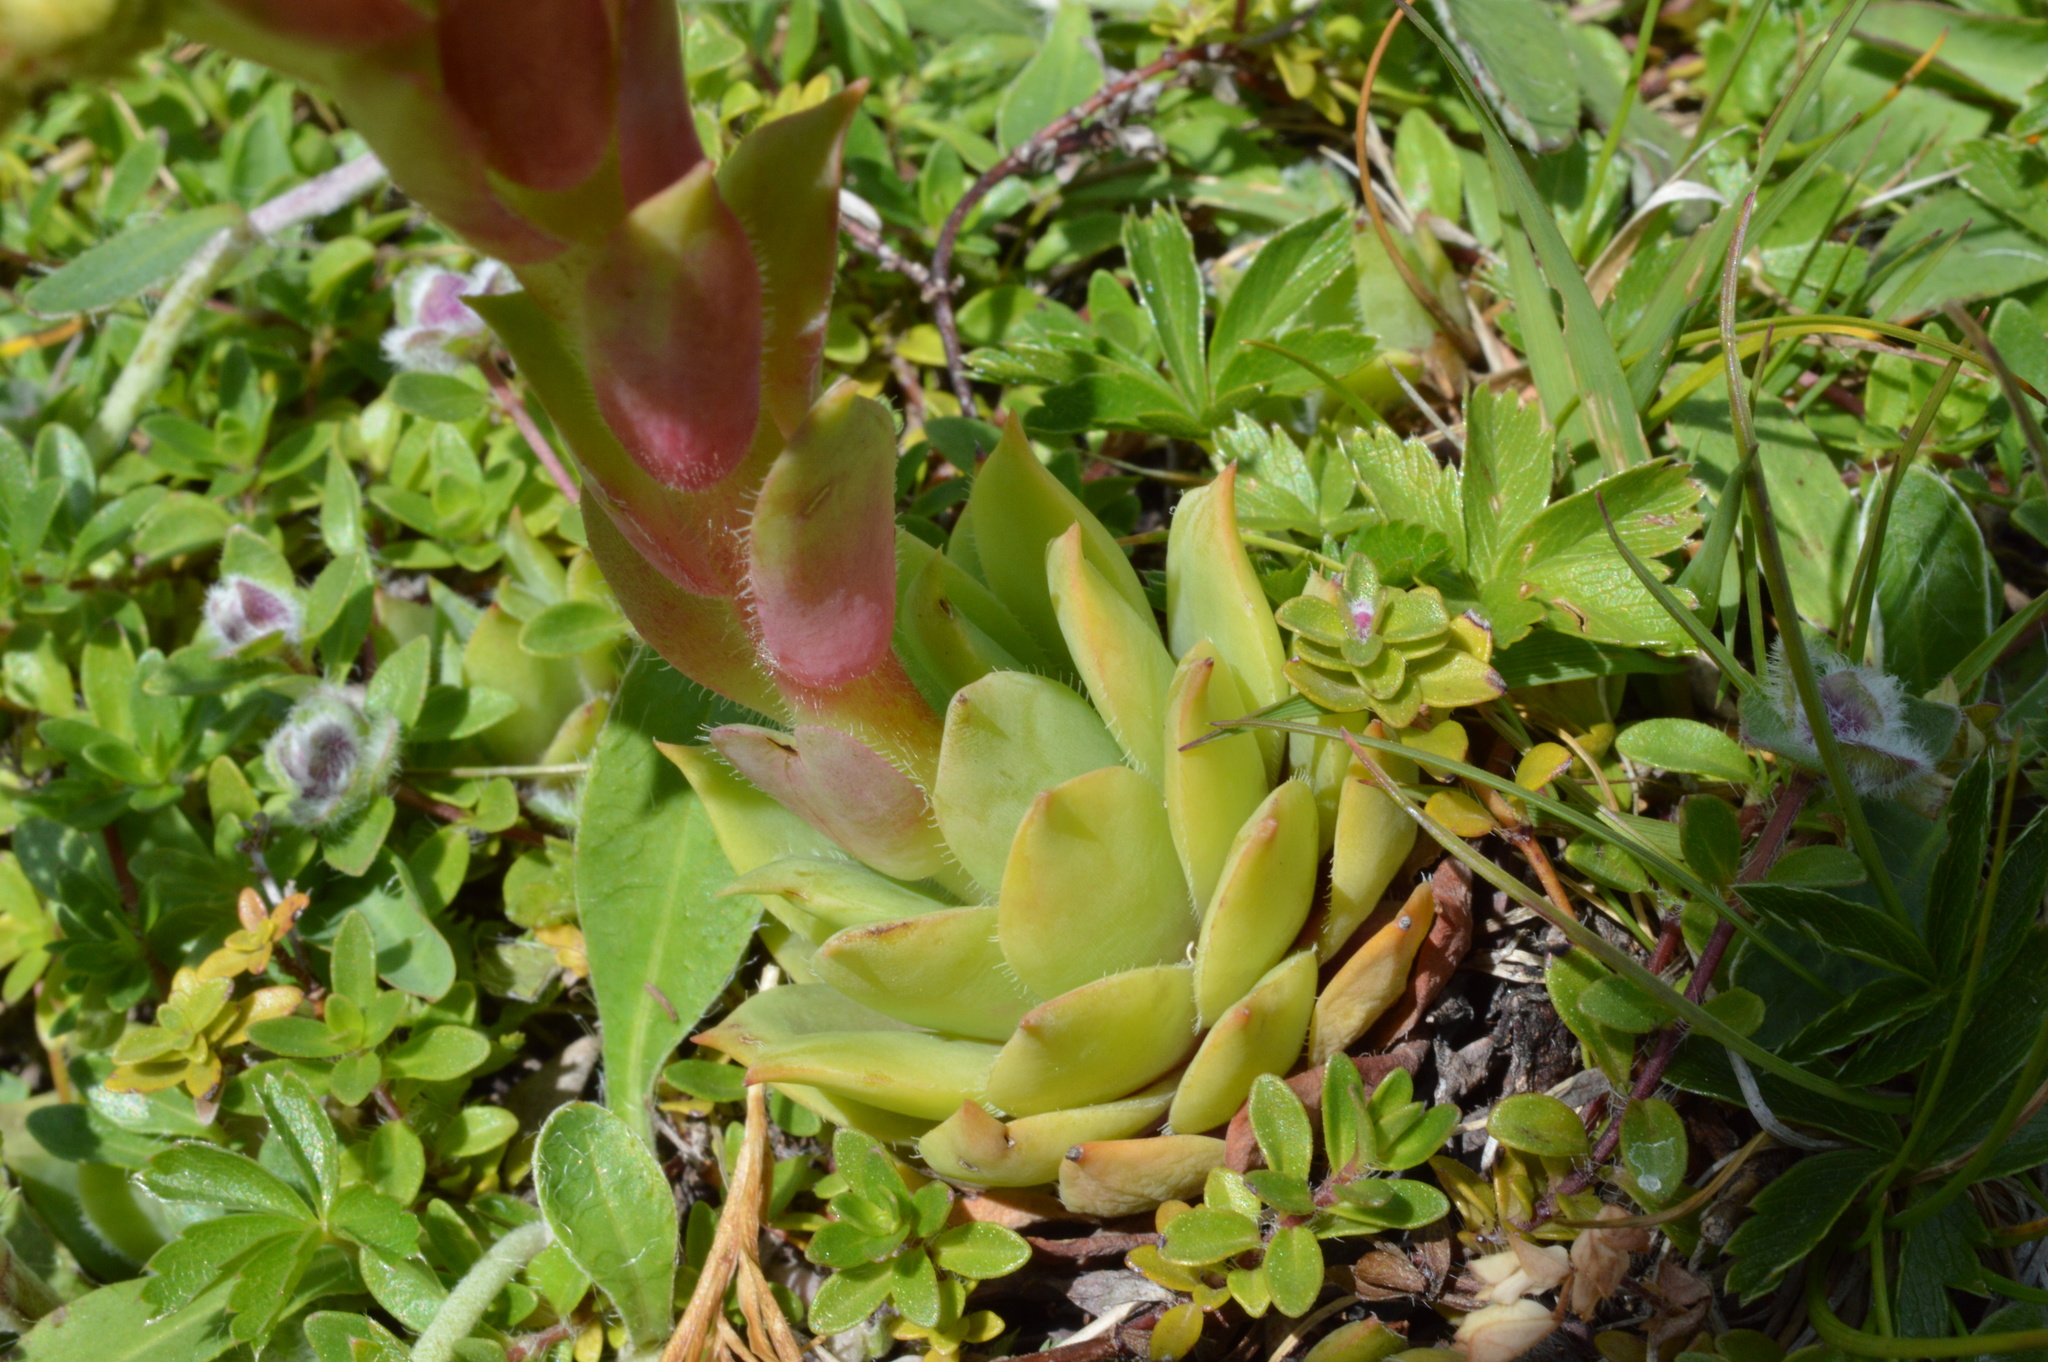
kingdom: Plantae
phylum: Tracheophyta
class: Magnoliopsida
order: Saxifragales
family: Crassulaceae
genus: Sempervivum
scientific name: Sempervivum wulfenii
